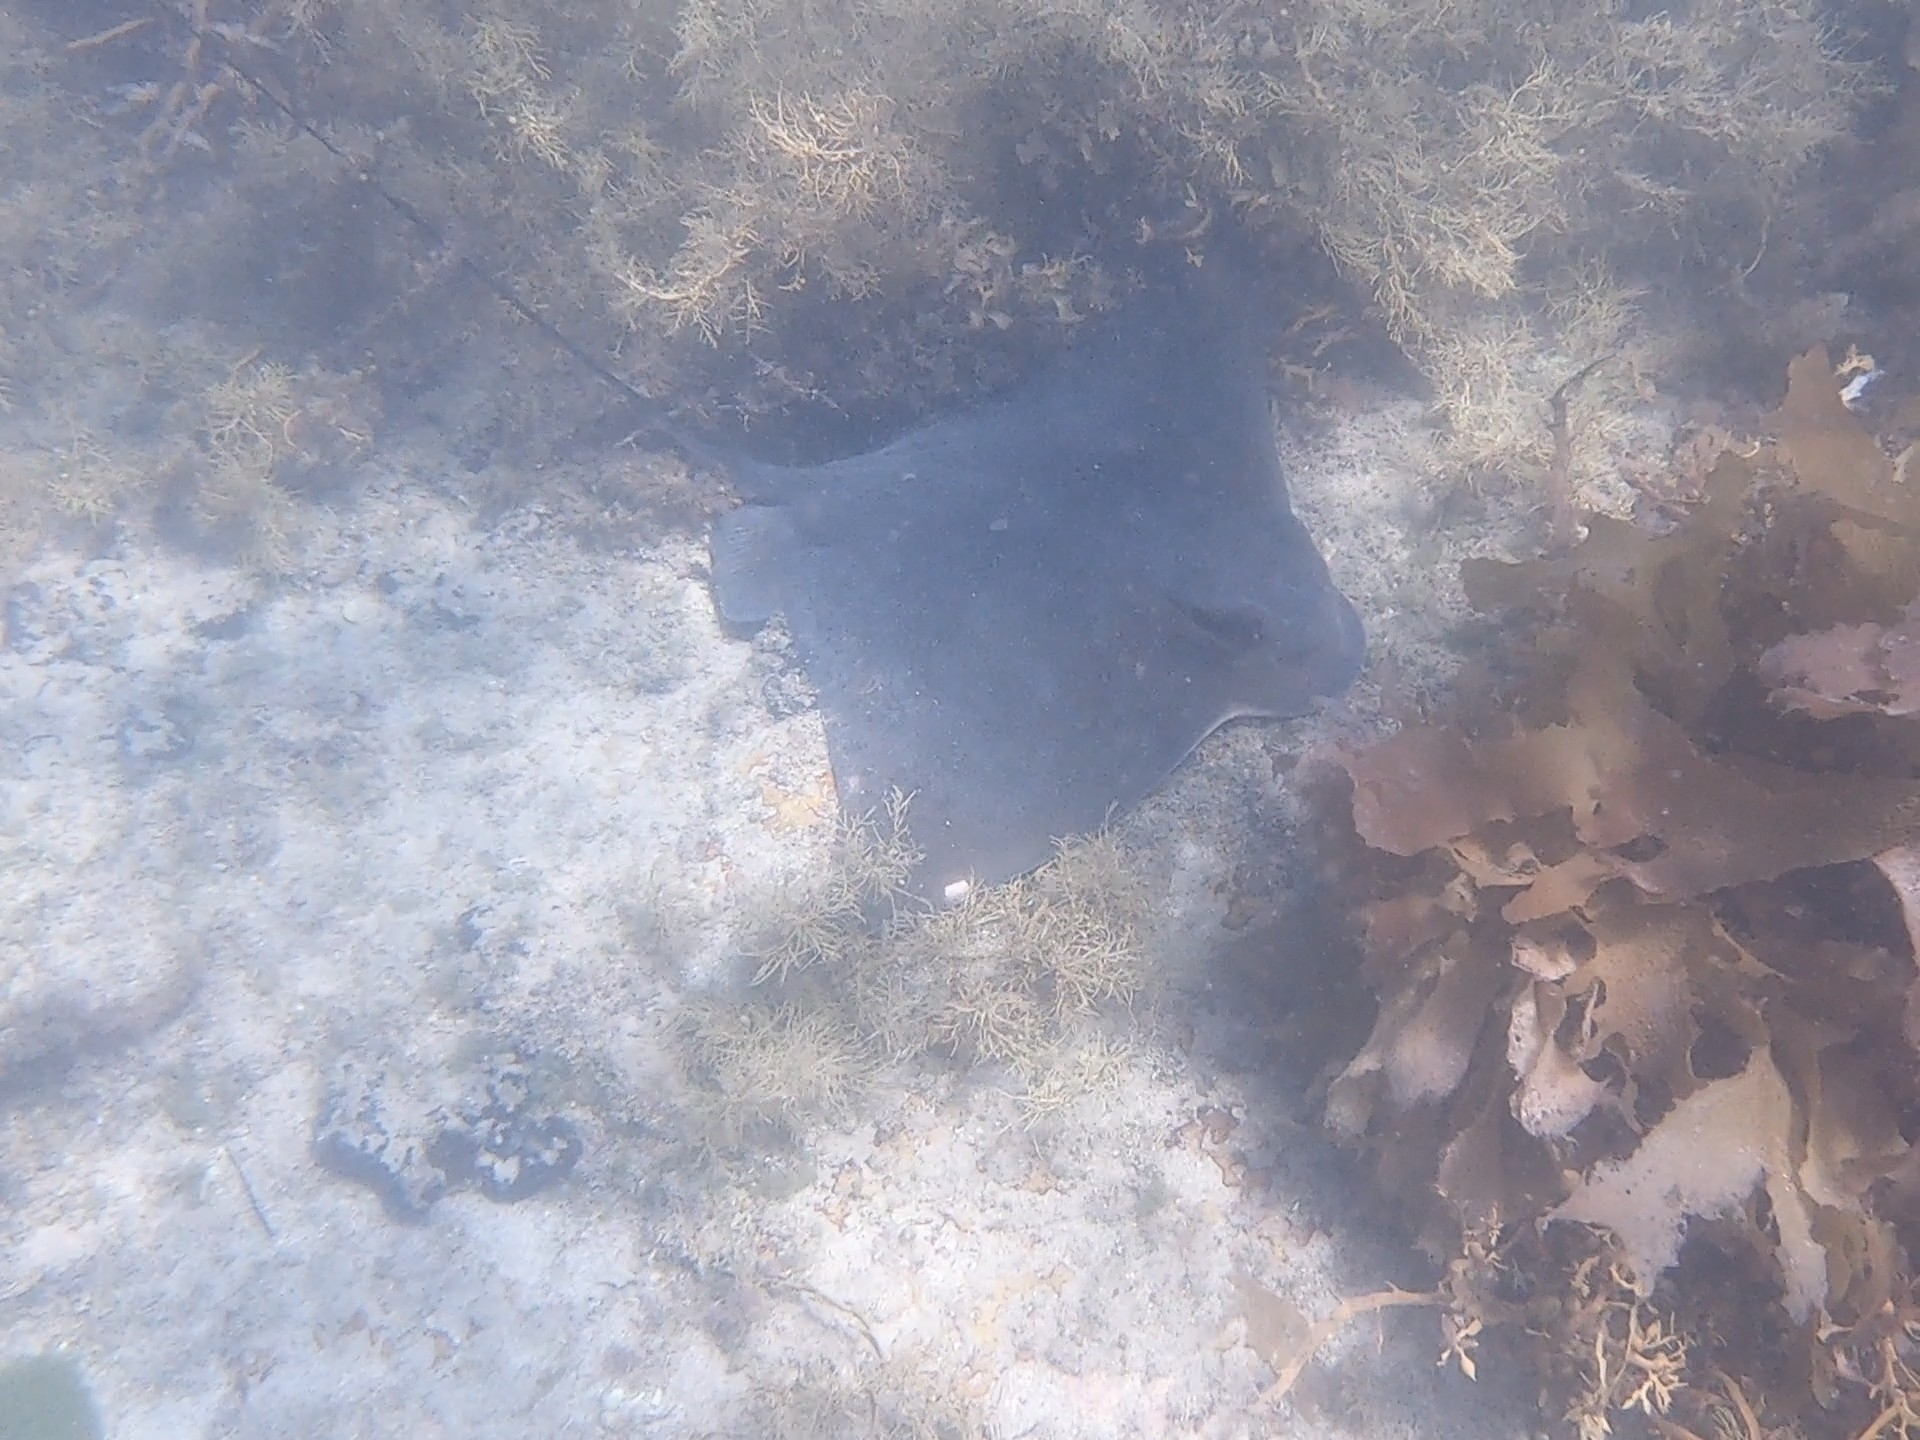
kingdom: Animalia
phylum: Chordata
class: Elasmobranchii
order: Myliobatiformes
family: Myliobatidae
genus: Myliobatis
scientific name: Myliobatis tenuicaudatus
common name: Eagle ray
